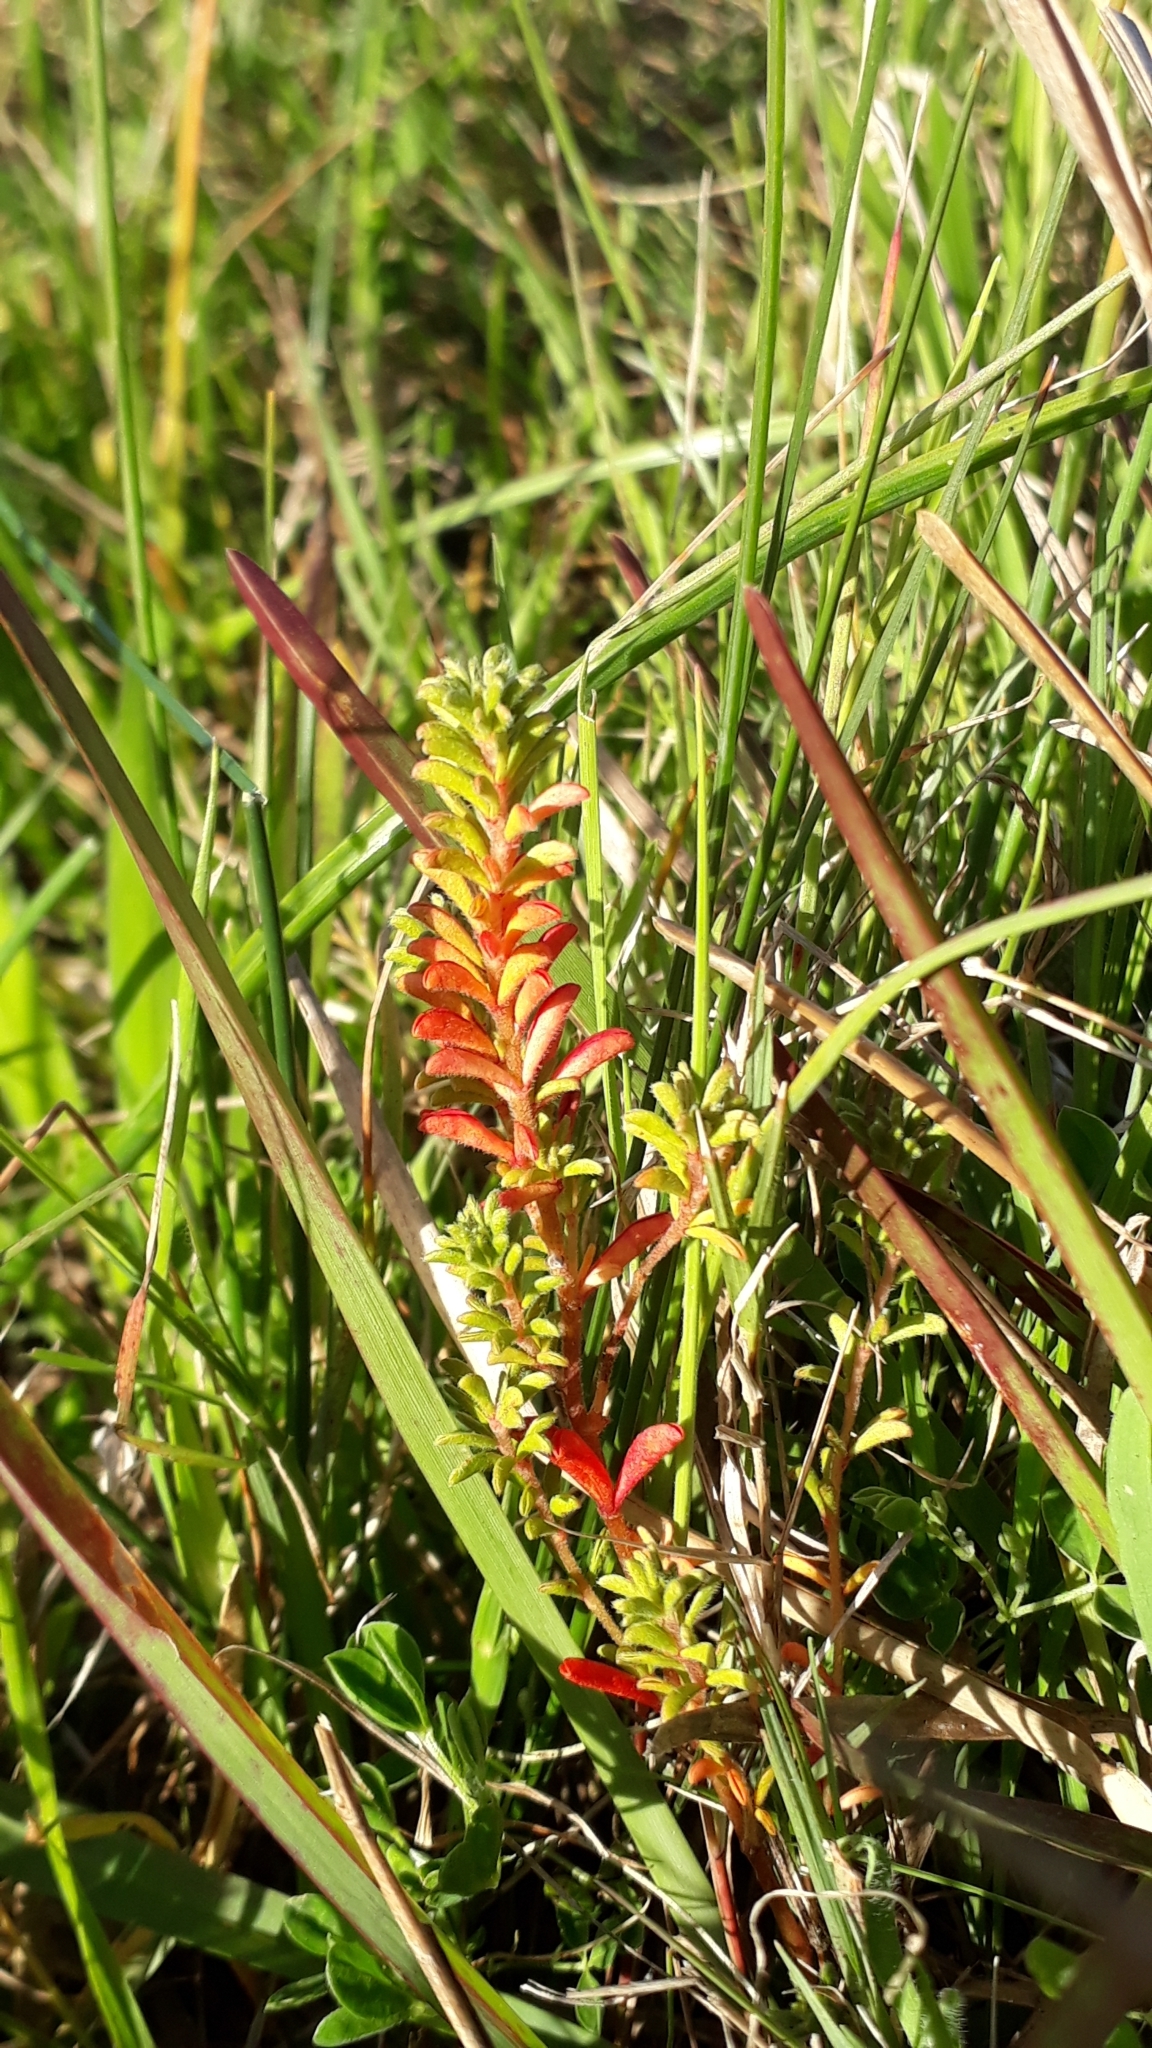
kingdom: Plantae
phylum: Tracheophyta
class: Magnoliopsida
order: Oxalidales
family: Oxalidaceae
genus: Oxalis
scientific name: Oxalis hirta
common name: Tropical woodsorrel
